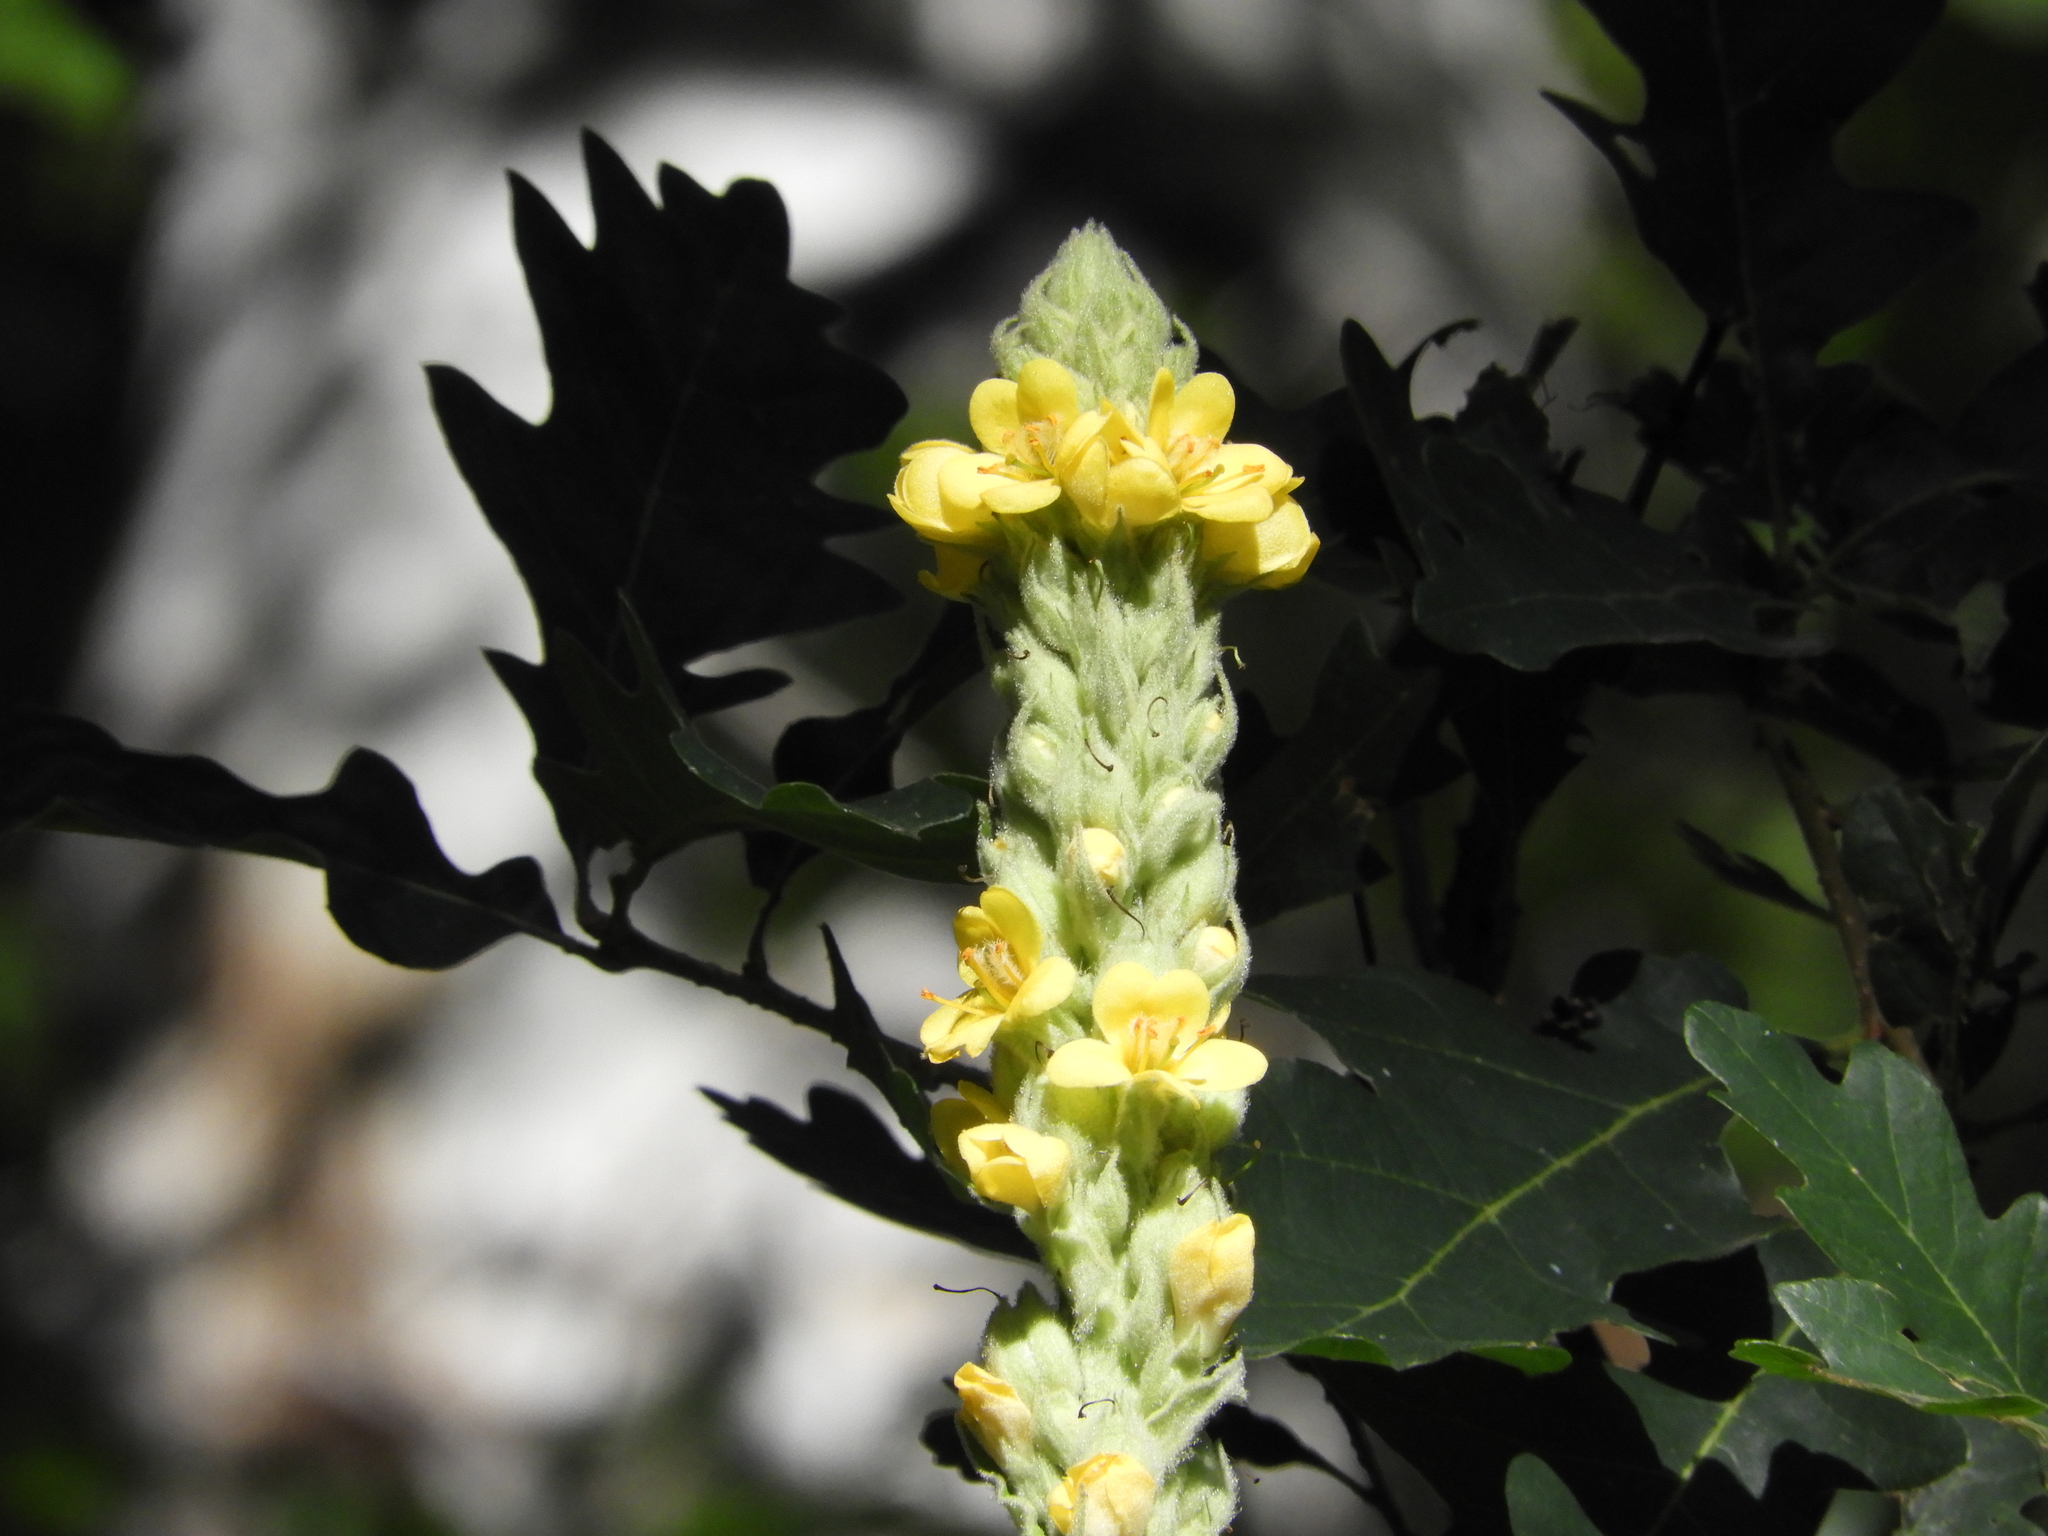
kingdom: Plantae
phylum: Tracheophyta
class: Magnoliopsida
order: Lamiales
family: Scrophulariaceae
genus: Verbascum
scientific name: Verbascum thapsus
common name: Common mullein
